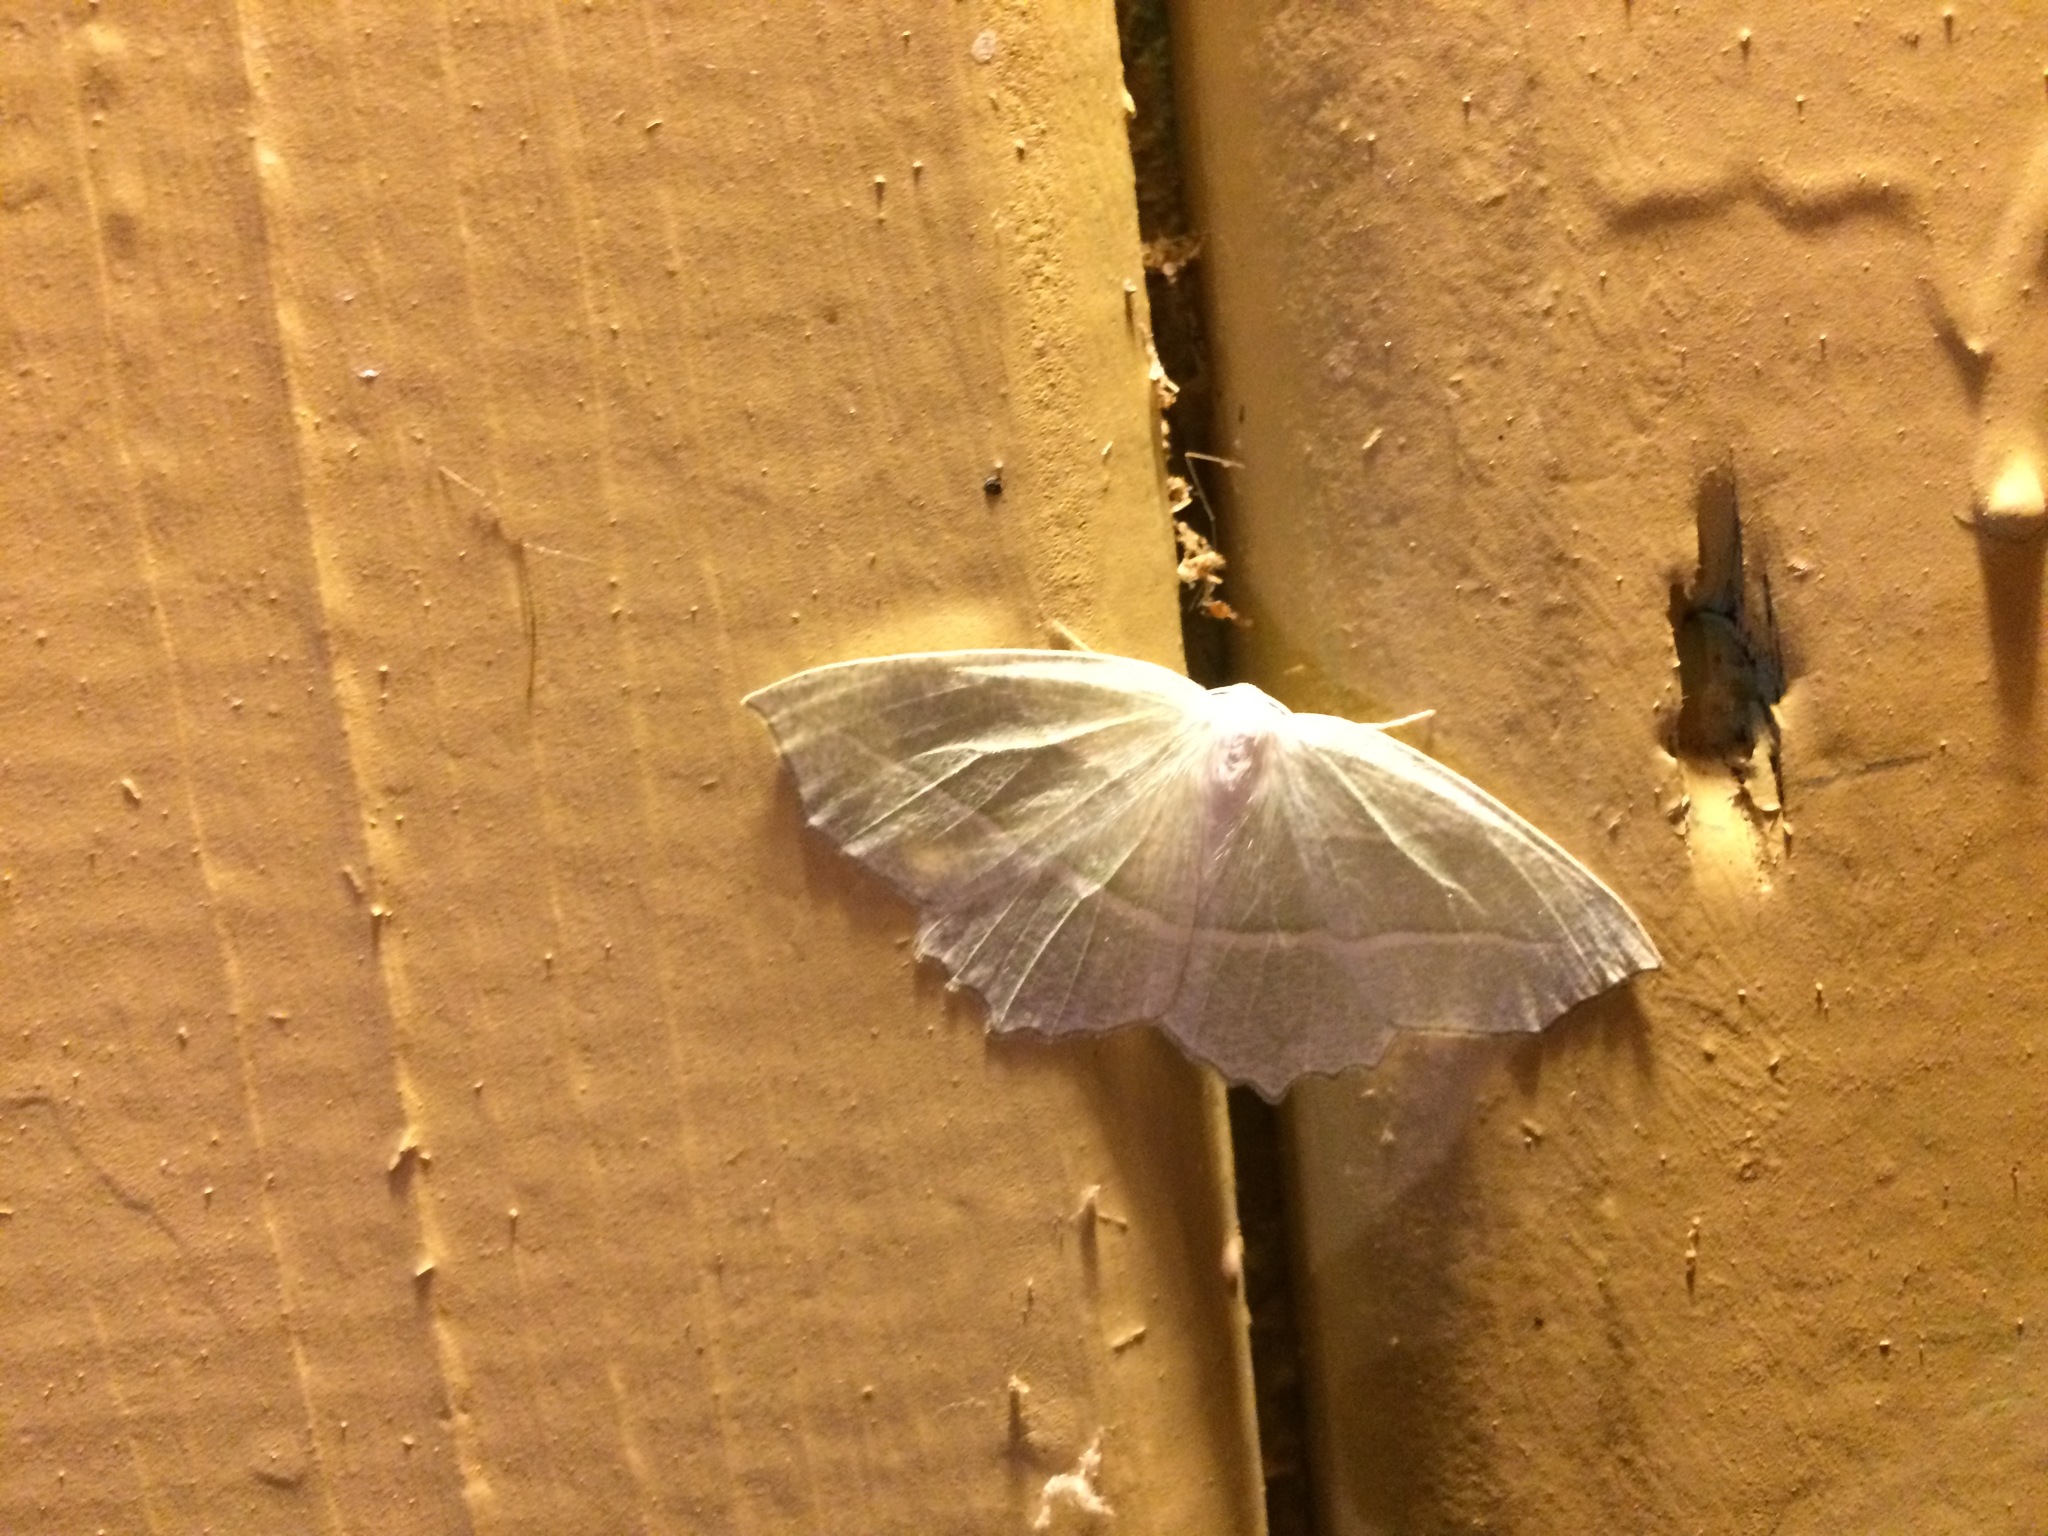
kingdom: Animalia
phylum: Arthropoda
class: Insecta
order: Lepidoptera
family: Geometridae
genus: Campaea
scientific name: Campaea perlata
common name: Fringed looper
